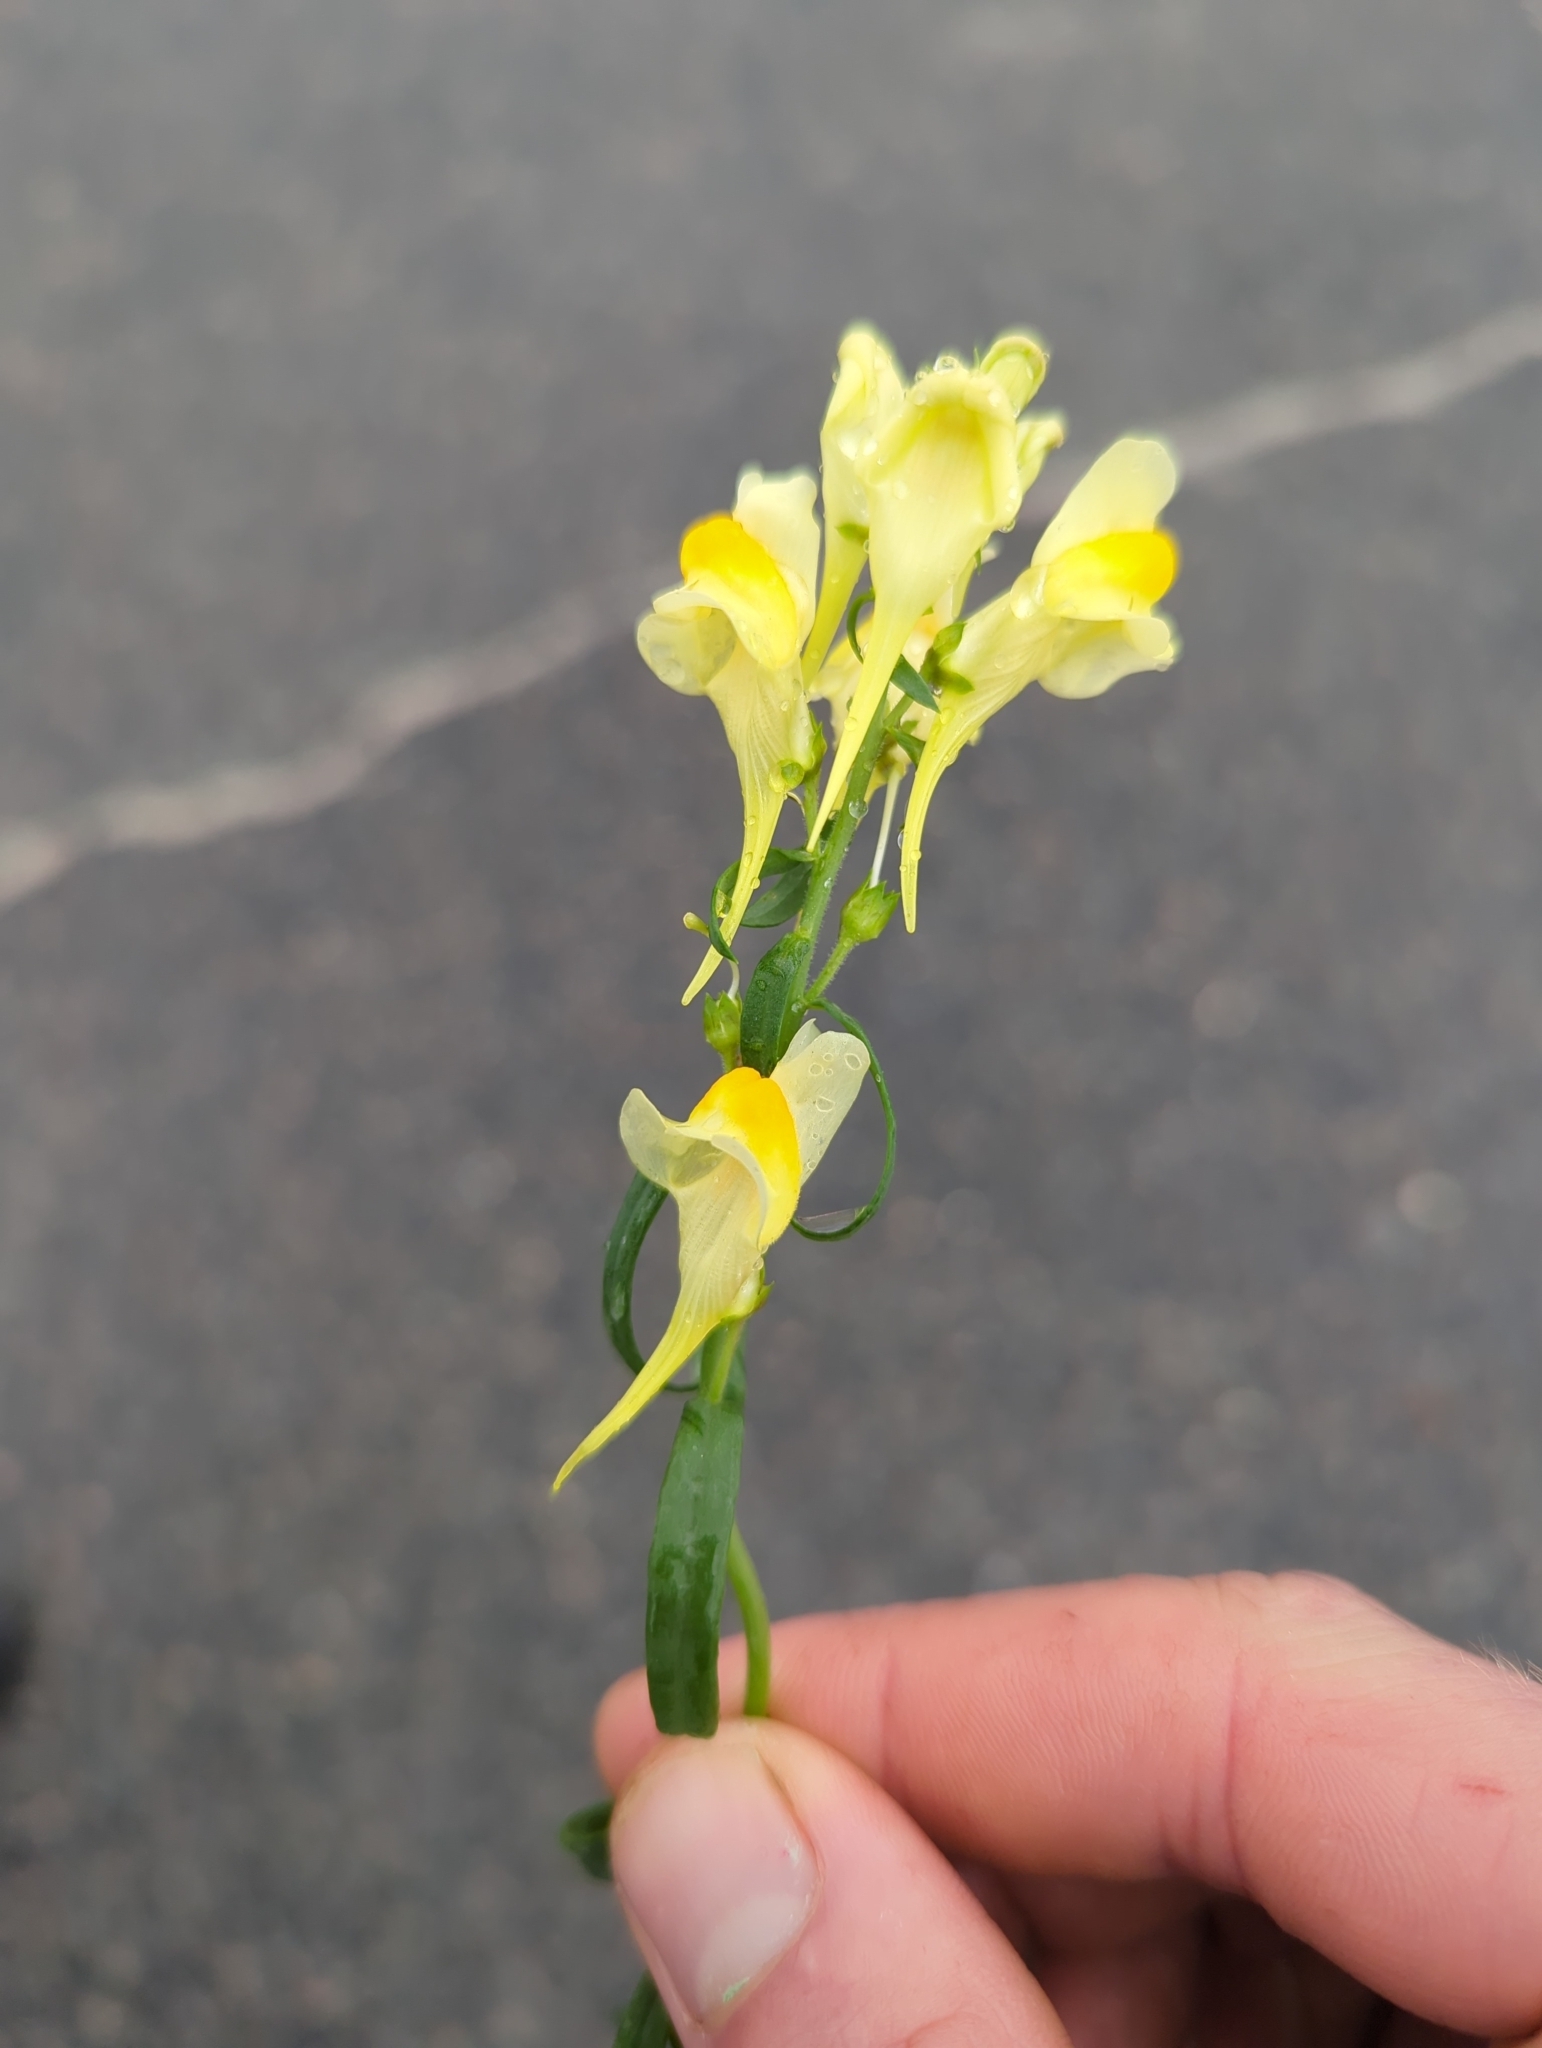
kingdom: Plantae
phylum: Tracheophyta
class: Magnoliopsida
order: Lamiales
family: Plantaginaceae
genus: Linaria
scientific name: Linaria vulgaris
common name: Butter and eggs
